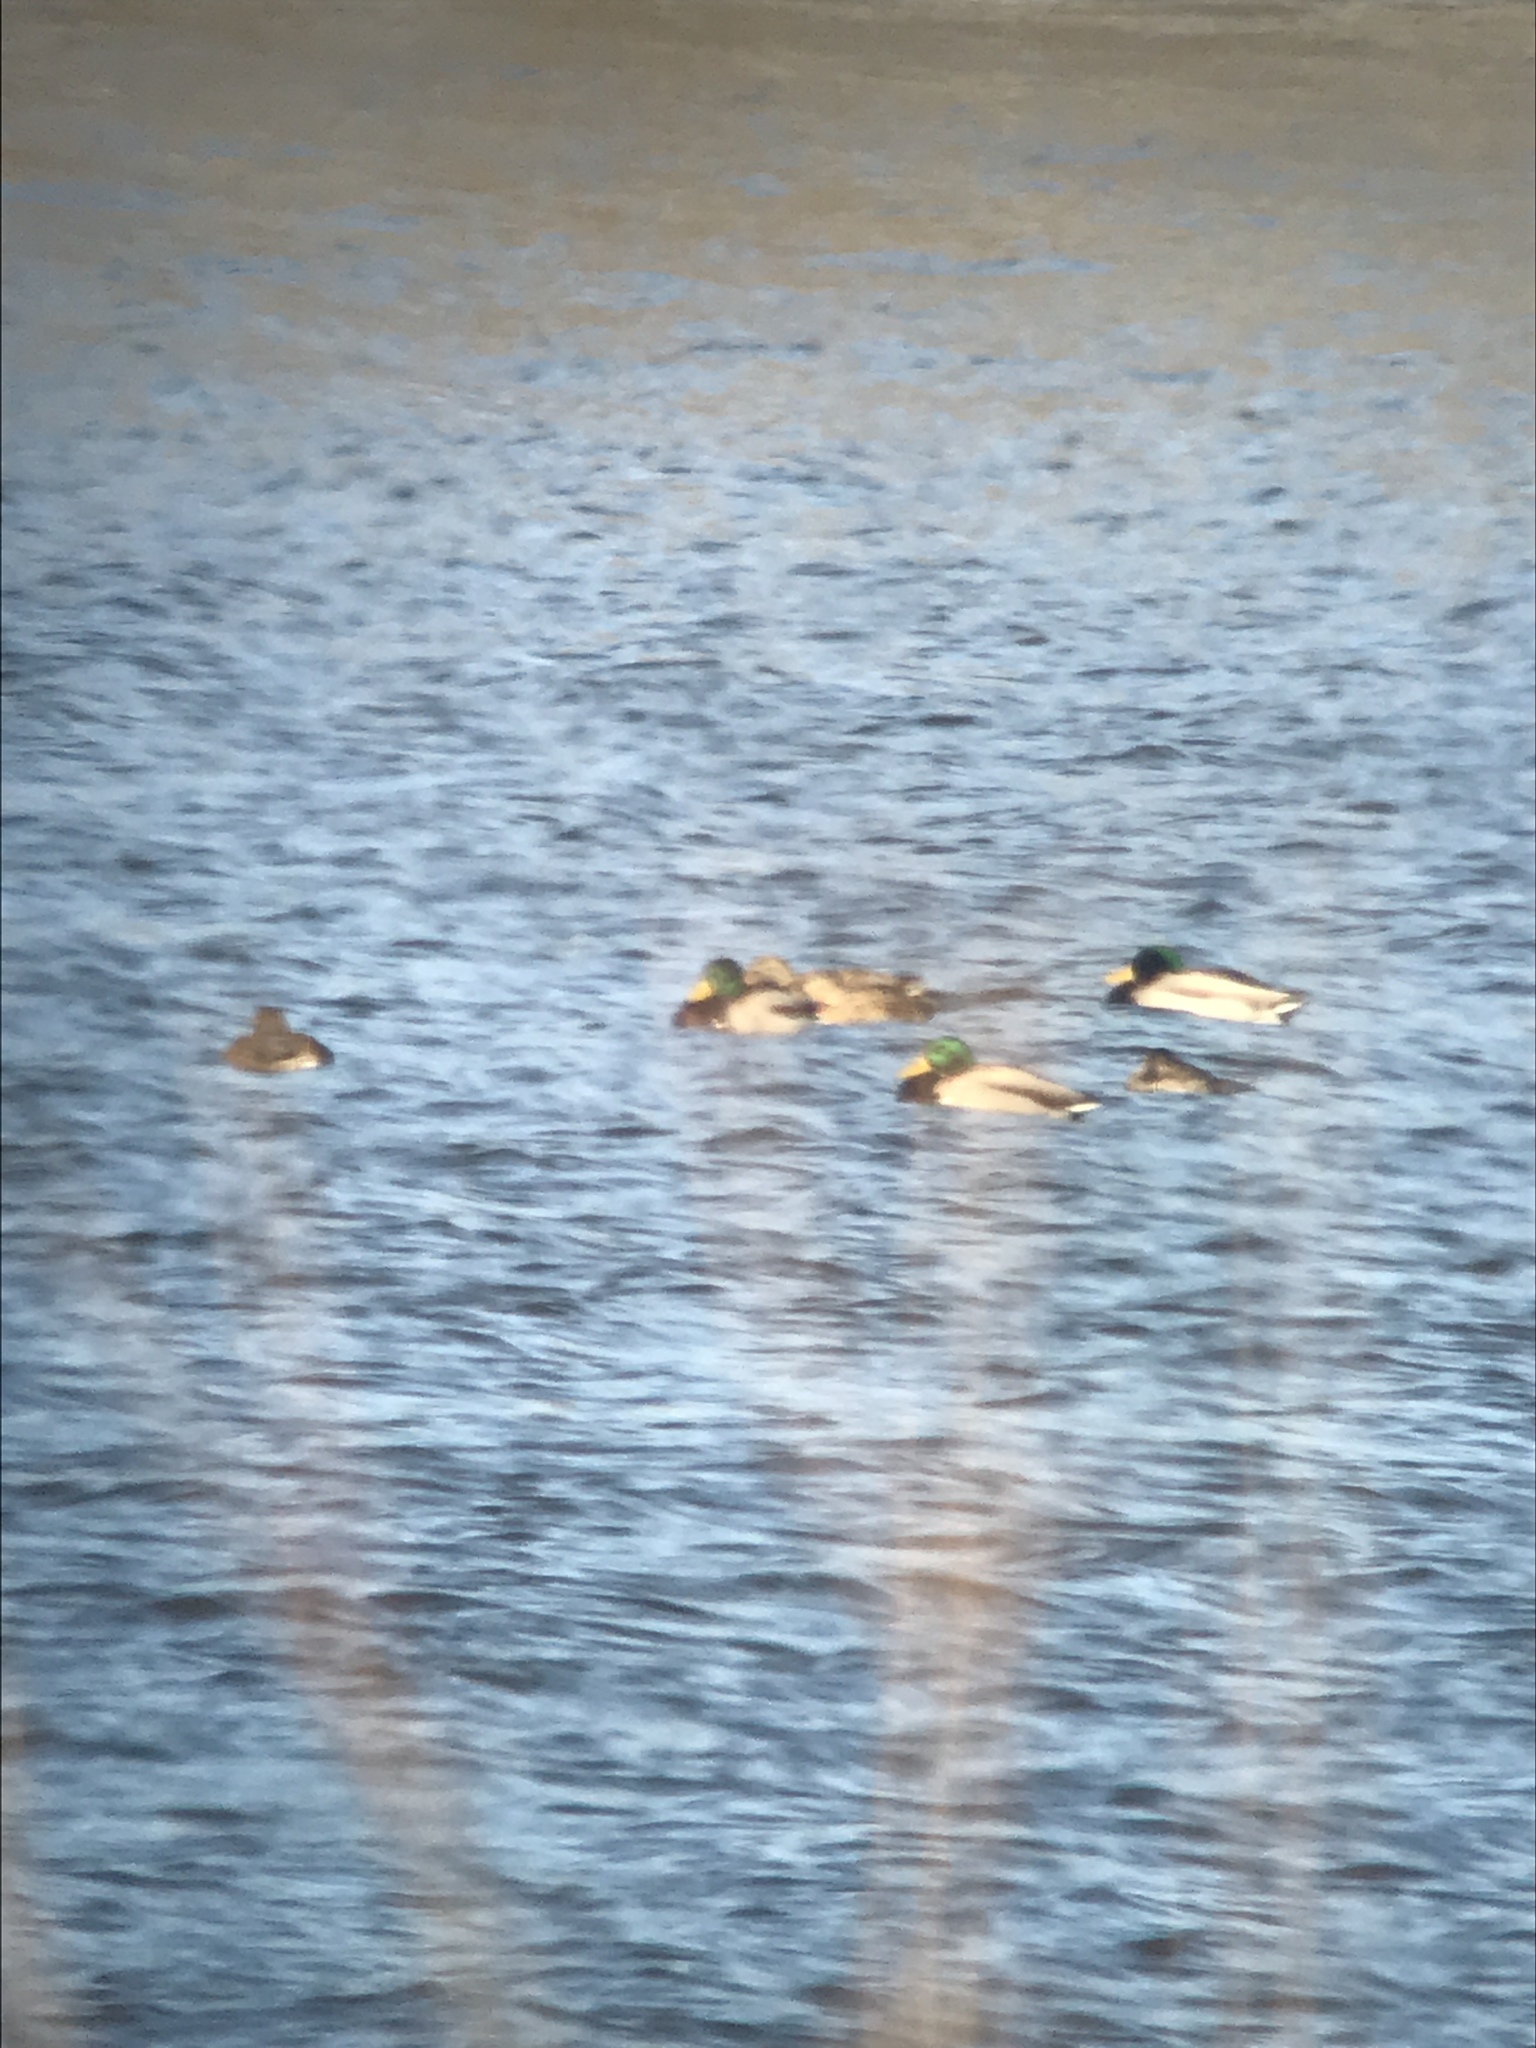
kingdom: Animalia
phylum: Chordata
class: Aves
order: Anseriformes
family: Anatidae
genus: Anas
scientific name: Anas platyrhynchos
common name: Mallard
